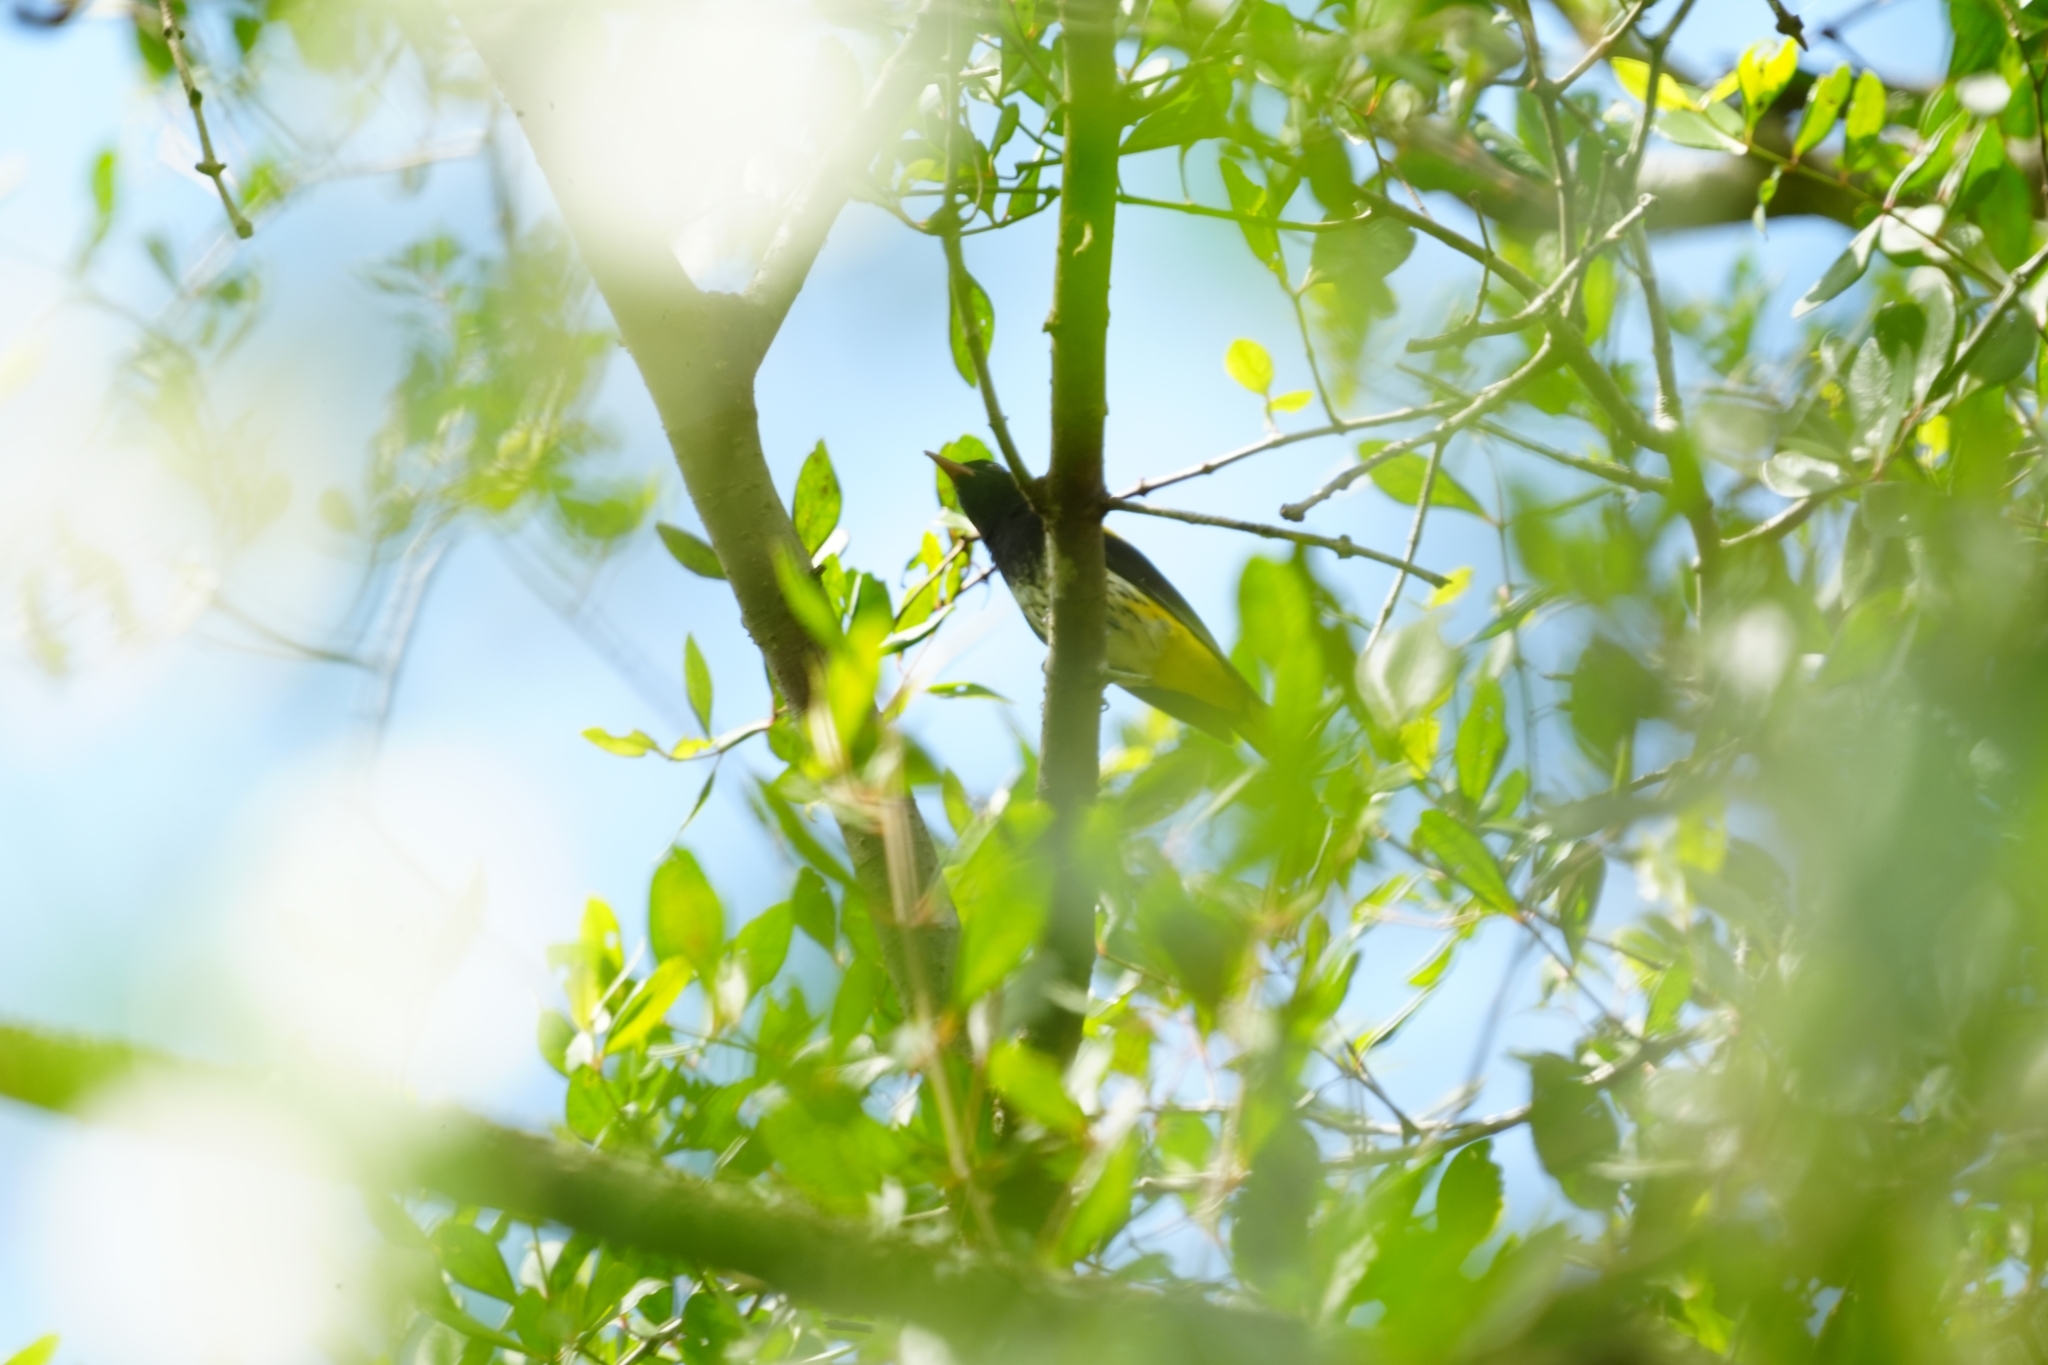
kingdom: Animalia
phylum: Chordata
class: Aves
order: Passeriformes
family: Oriolidae
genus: Oriolus
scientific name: Oriolus consobrinus
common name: Ventriloquial oriole
